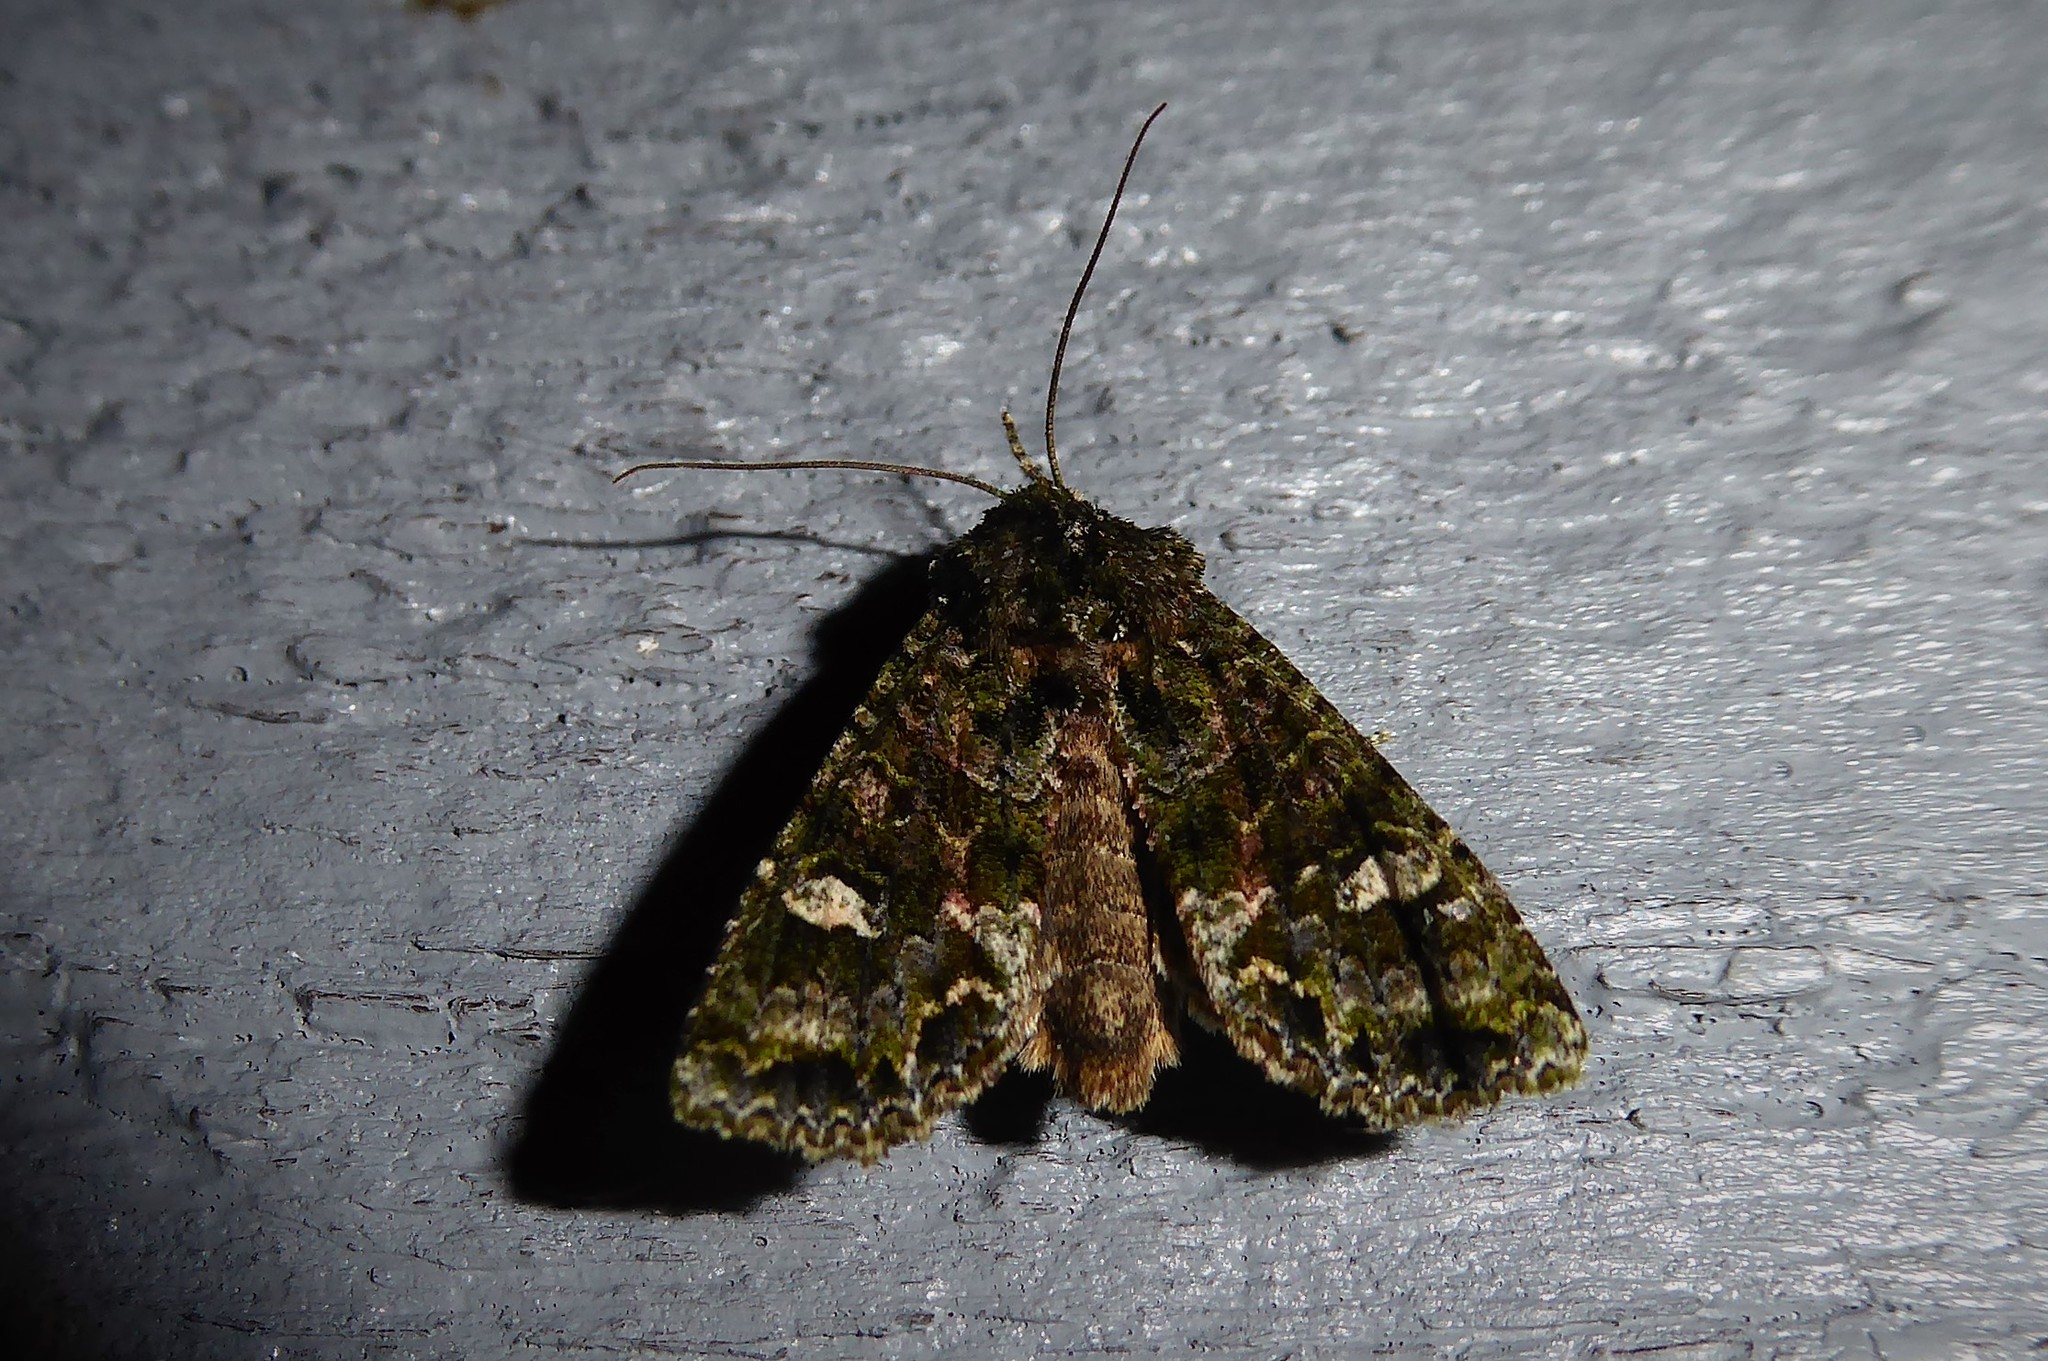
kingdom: Animalia
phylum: Arthropoda
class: Insecta
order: Lepidoptera
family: Noctuidae
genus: Ichneutica
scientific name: Ichneutica
